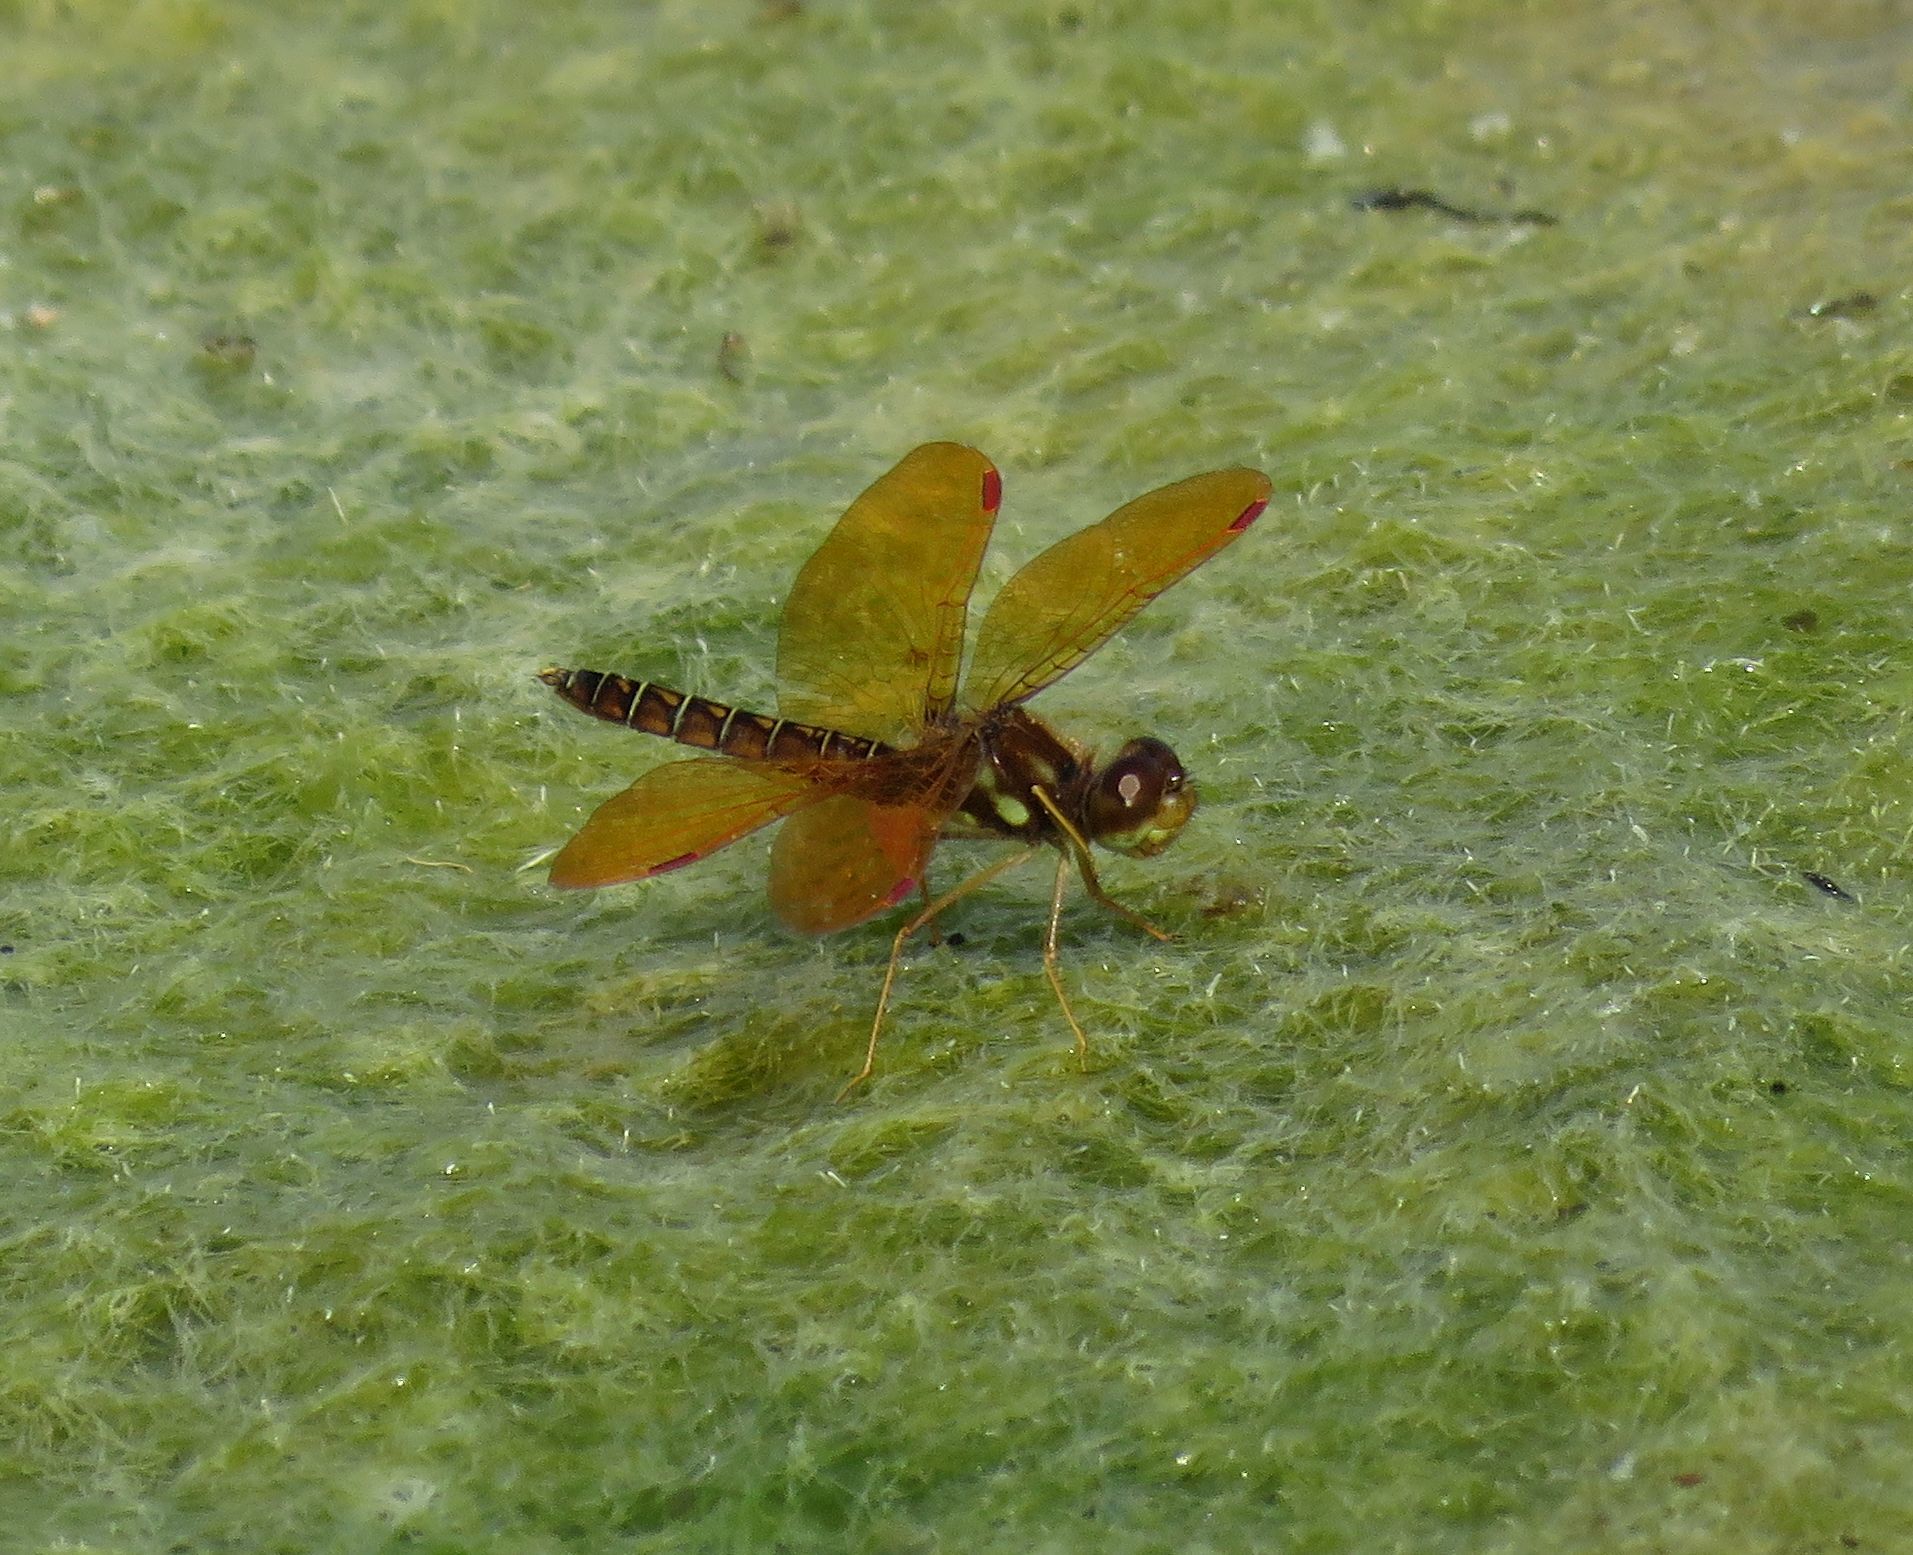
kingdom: Animalia
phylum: Arthropoda
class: Insecta
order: Odonata
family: Libellulidae
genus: Perithemis
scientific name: Perithemis tenera
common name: Eastern amberwing
